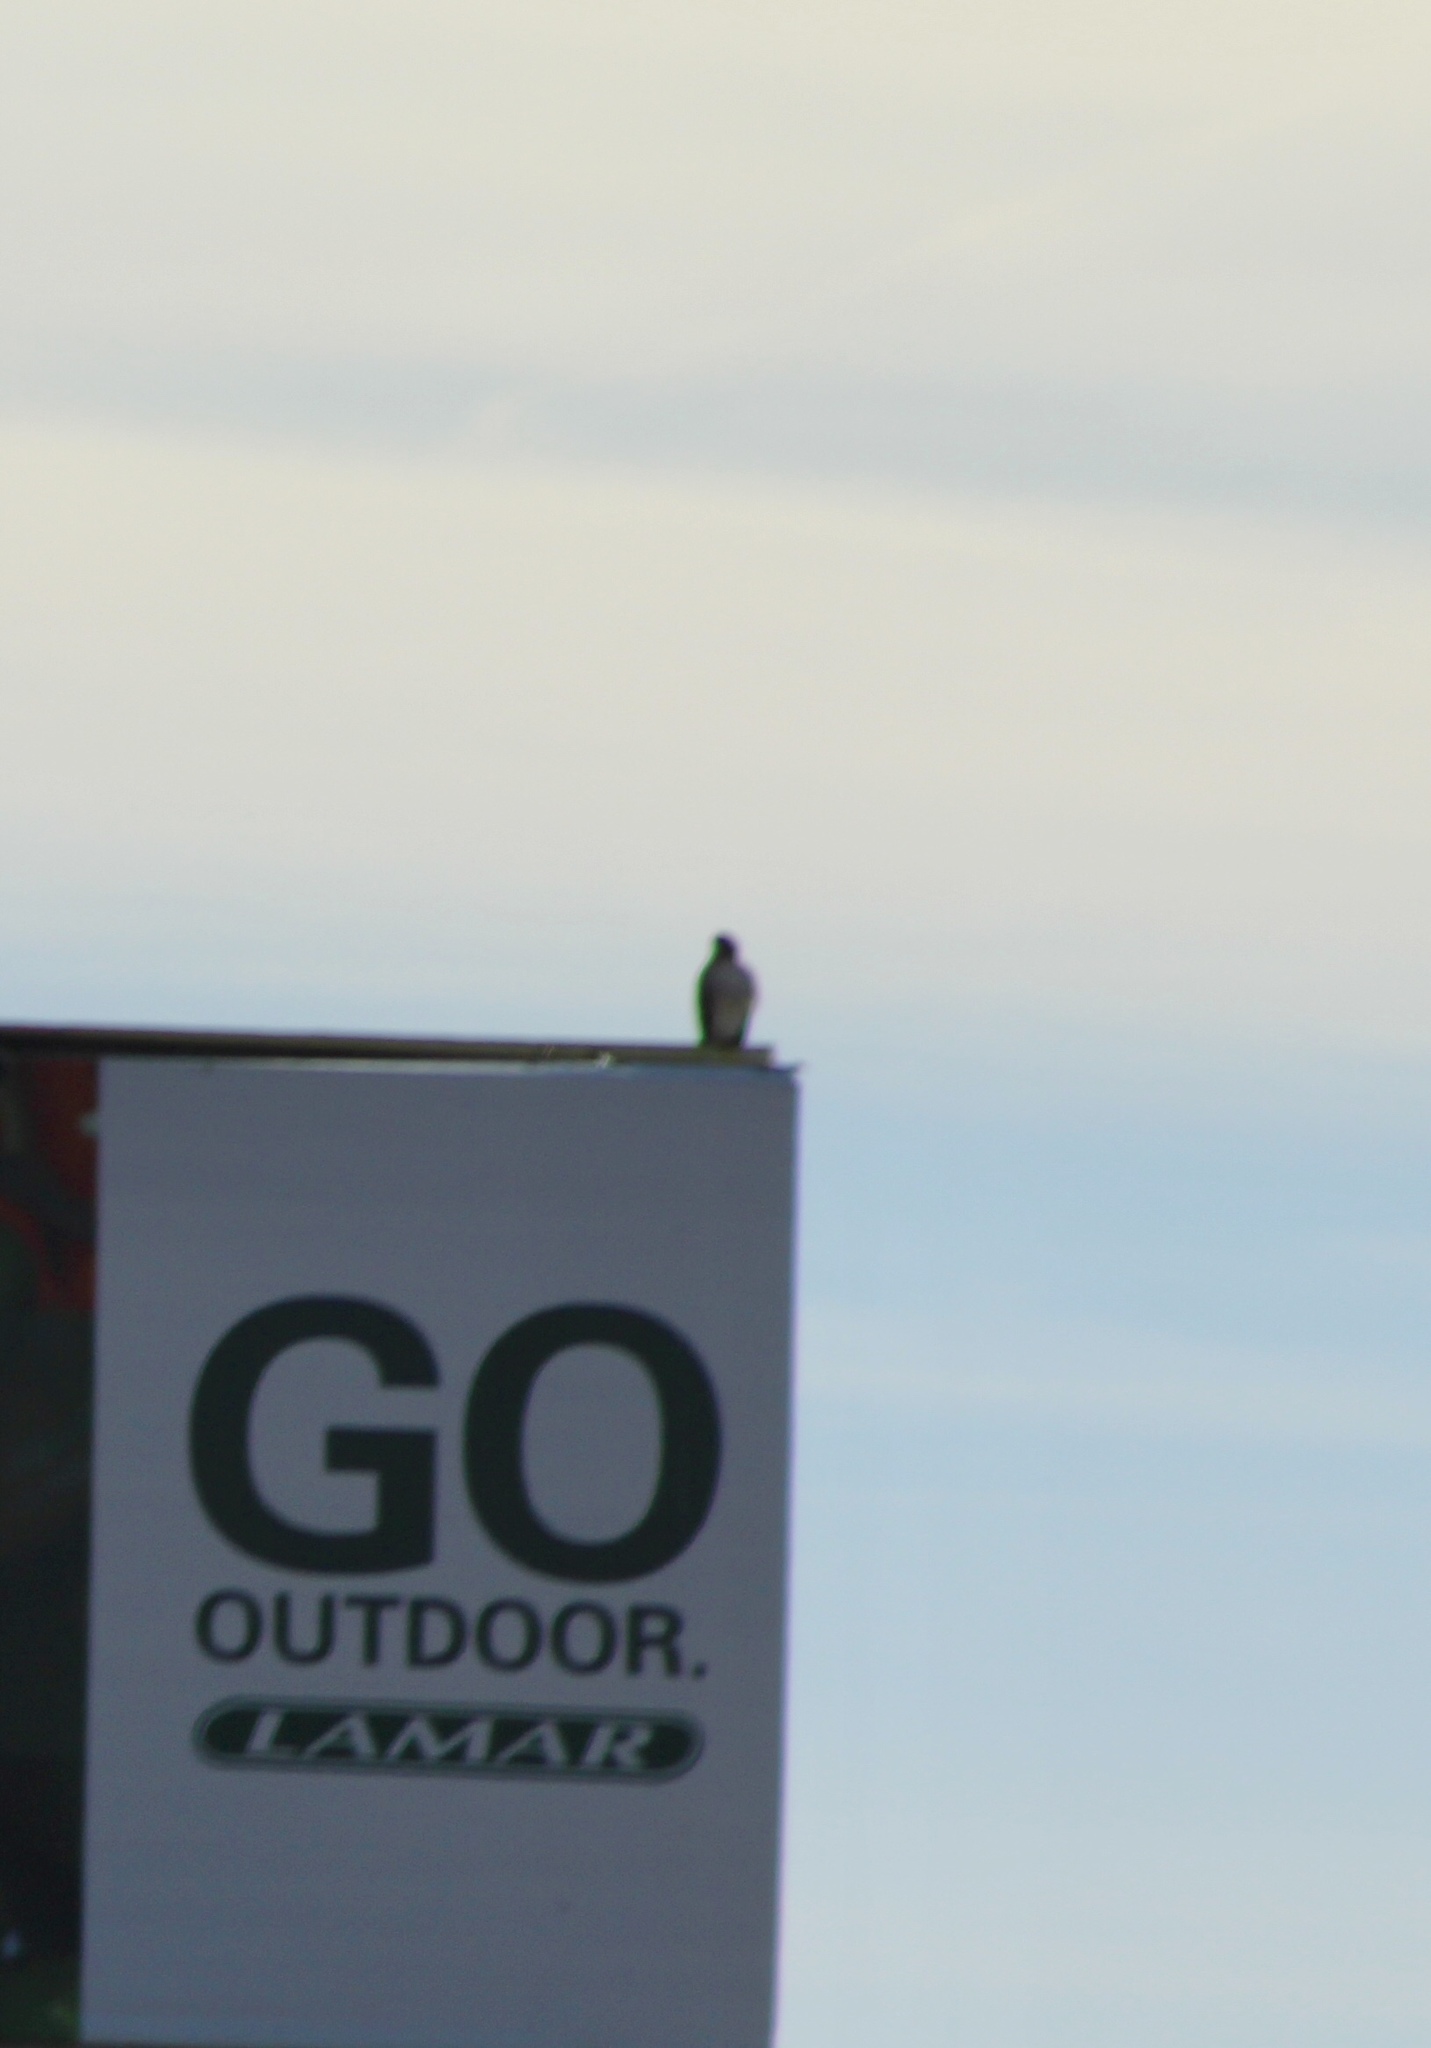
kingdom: Animalia
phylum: Chordata
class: Aves
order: Accipitriformes
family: Accipitridae
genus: Buteo
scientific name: Buteo jamaicensis
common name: Red-tailed hawk
